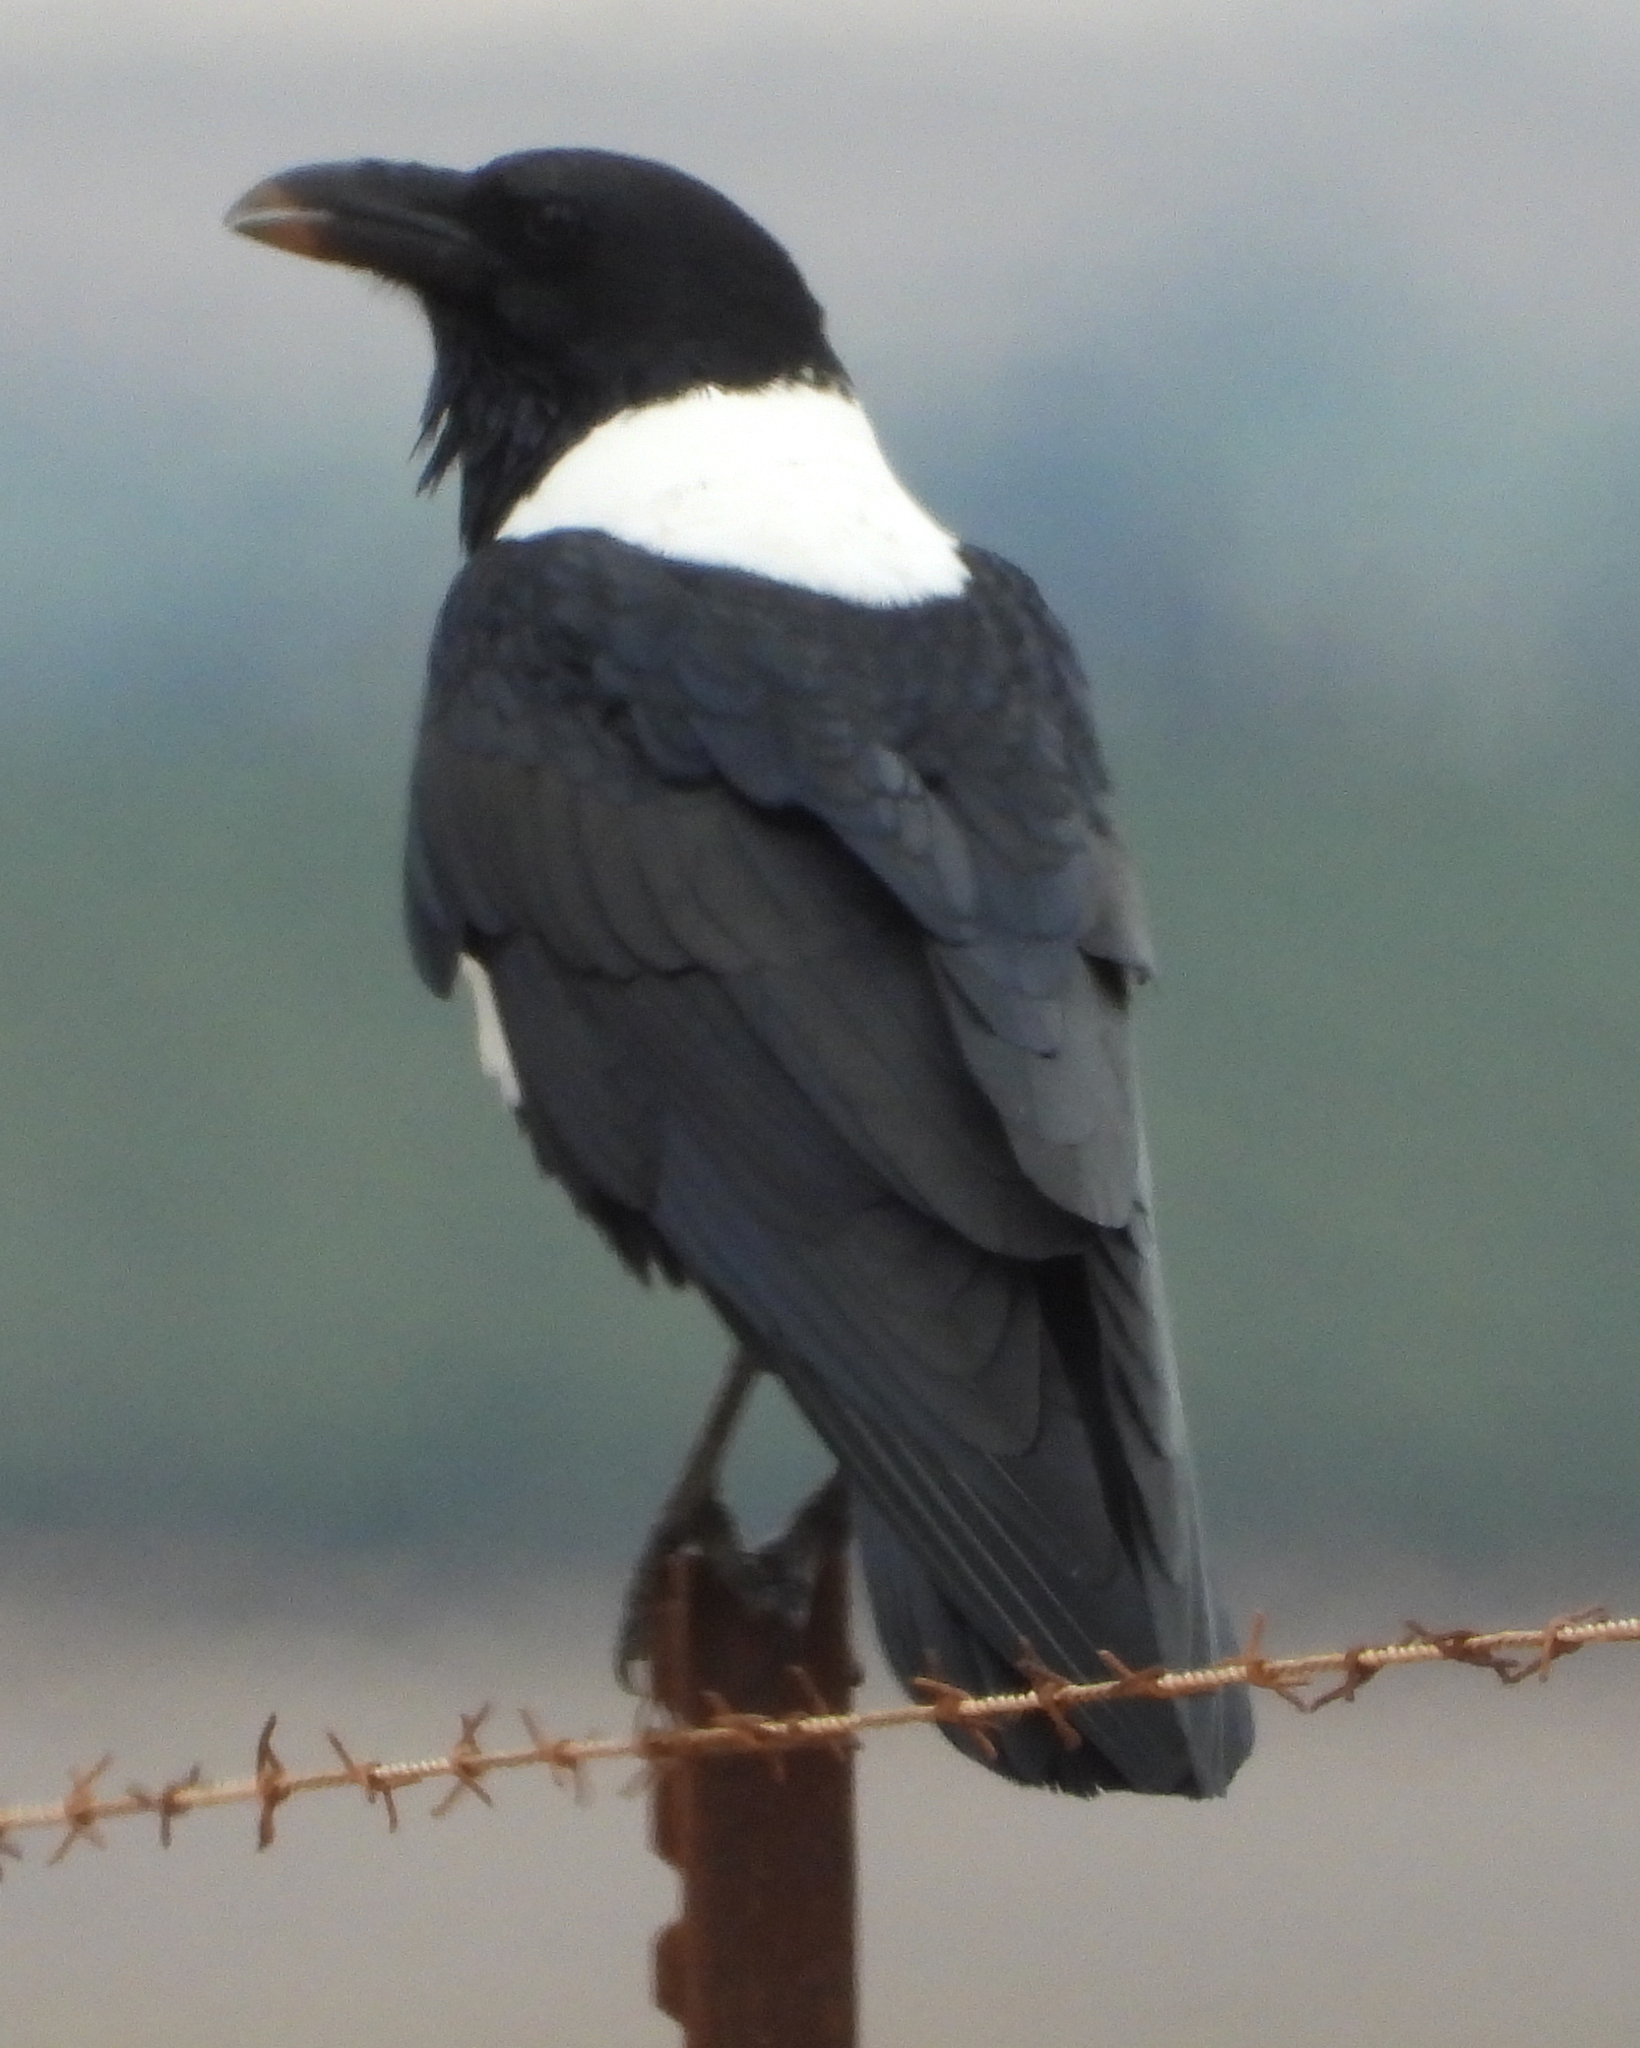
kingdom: Animalia
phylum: Chordata
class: Aves
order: Passeriformes
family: Corvidae
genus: Corvus
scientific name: Corvus albus
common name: Pied crow
